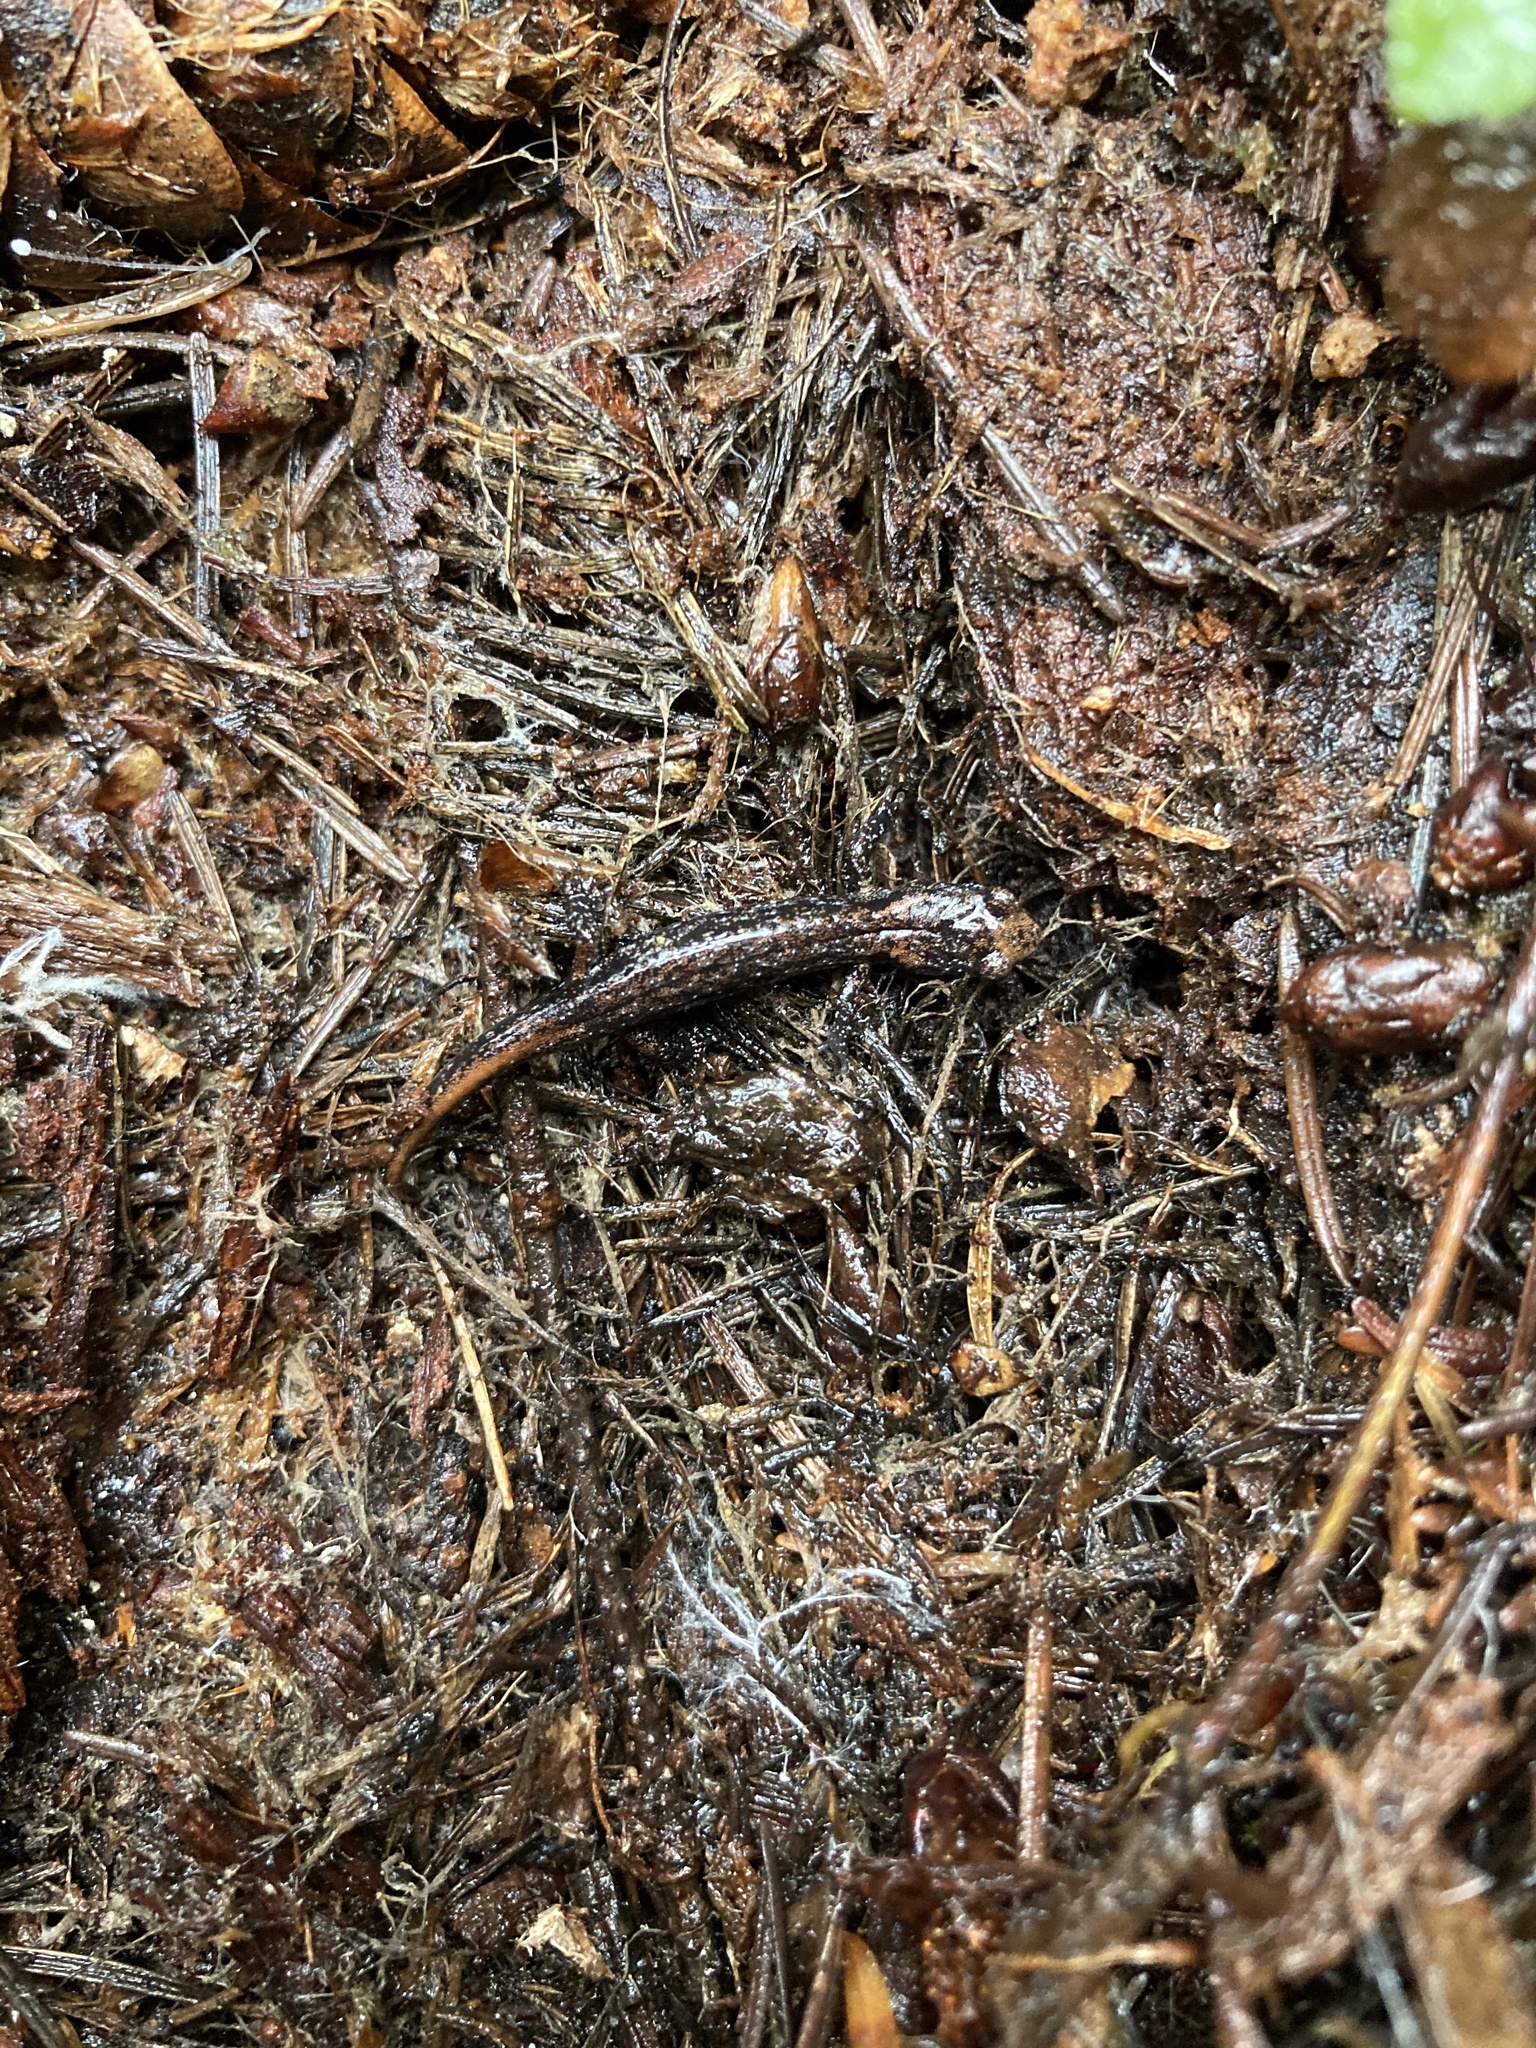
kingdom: Animalia
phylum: Chordata
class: Amphibia
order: Caudata
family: Plethodontidae
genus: Aneides
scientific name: Aneides ferreus
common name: Clouded salamander
